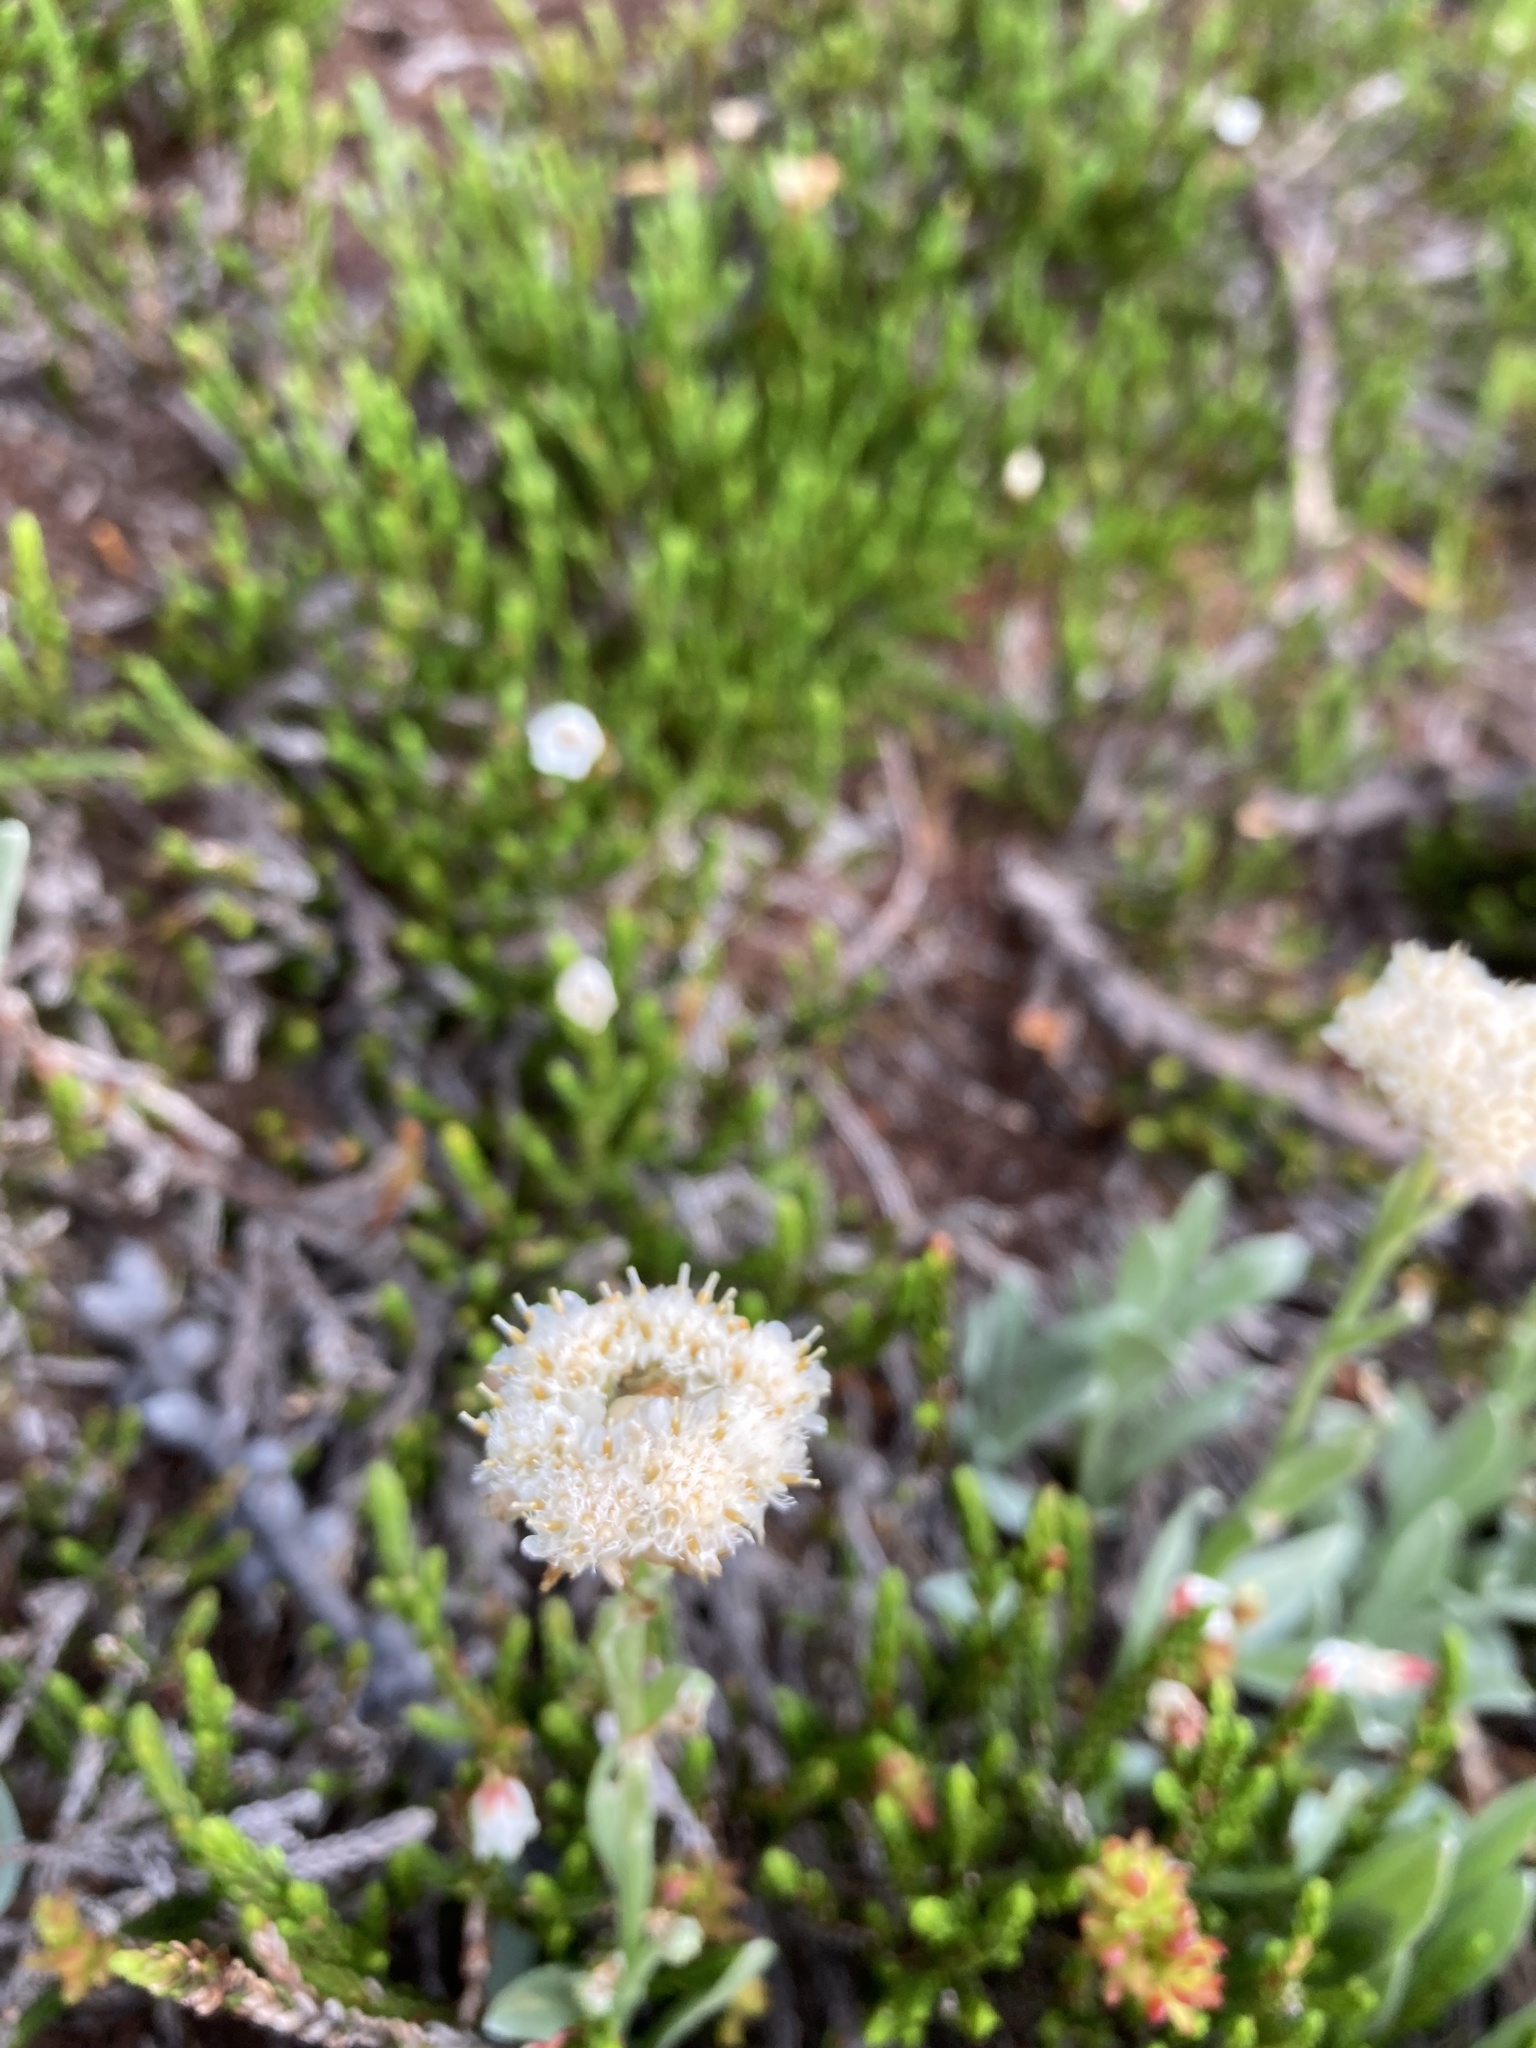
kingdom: Plantae
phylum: Tracheophyta
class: Magnoliopsida
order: Asterales
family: Asteraceae
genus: Antennaria
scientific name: Antennaria lanata
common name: Woolly pussytoes
